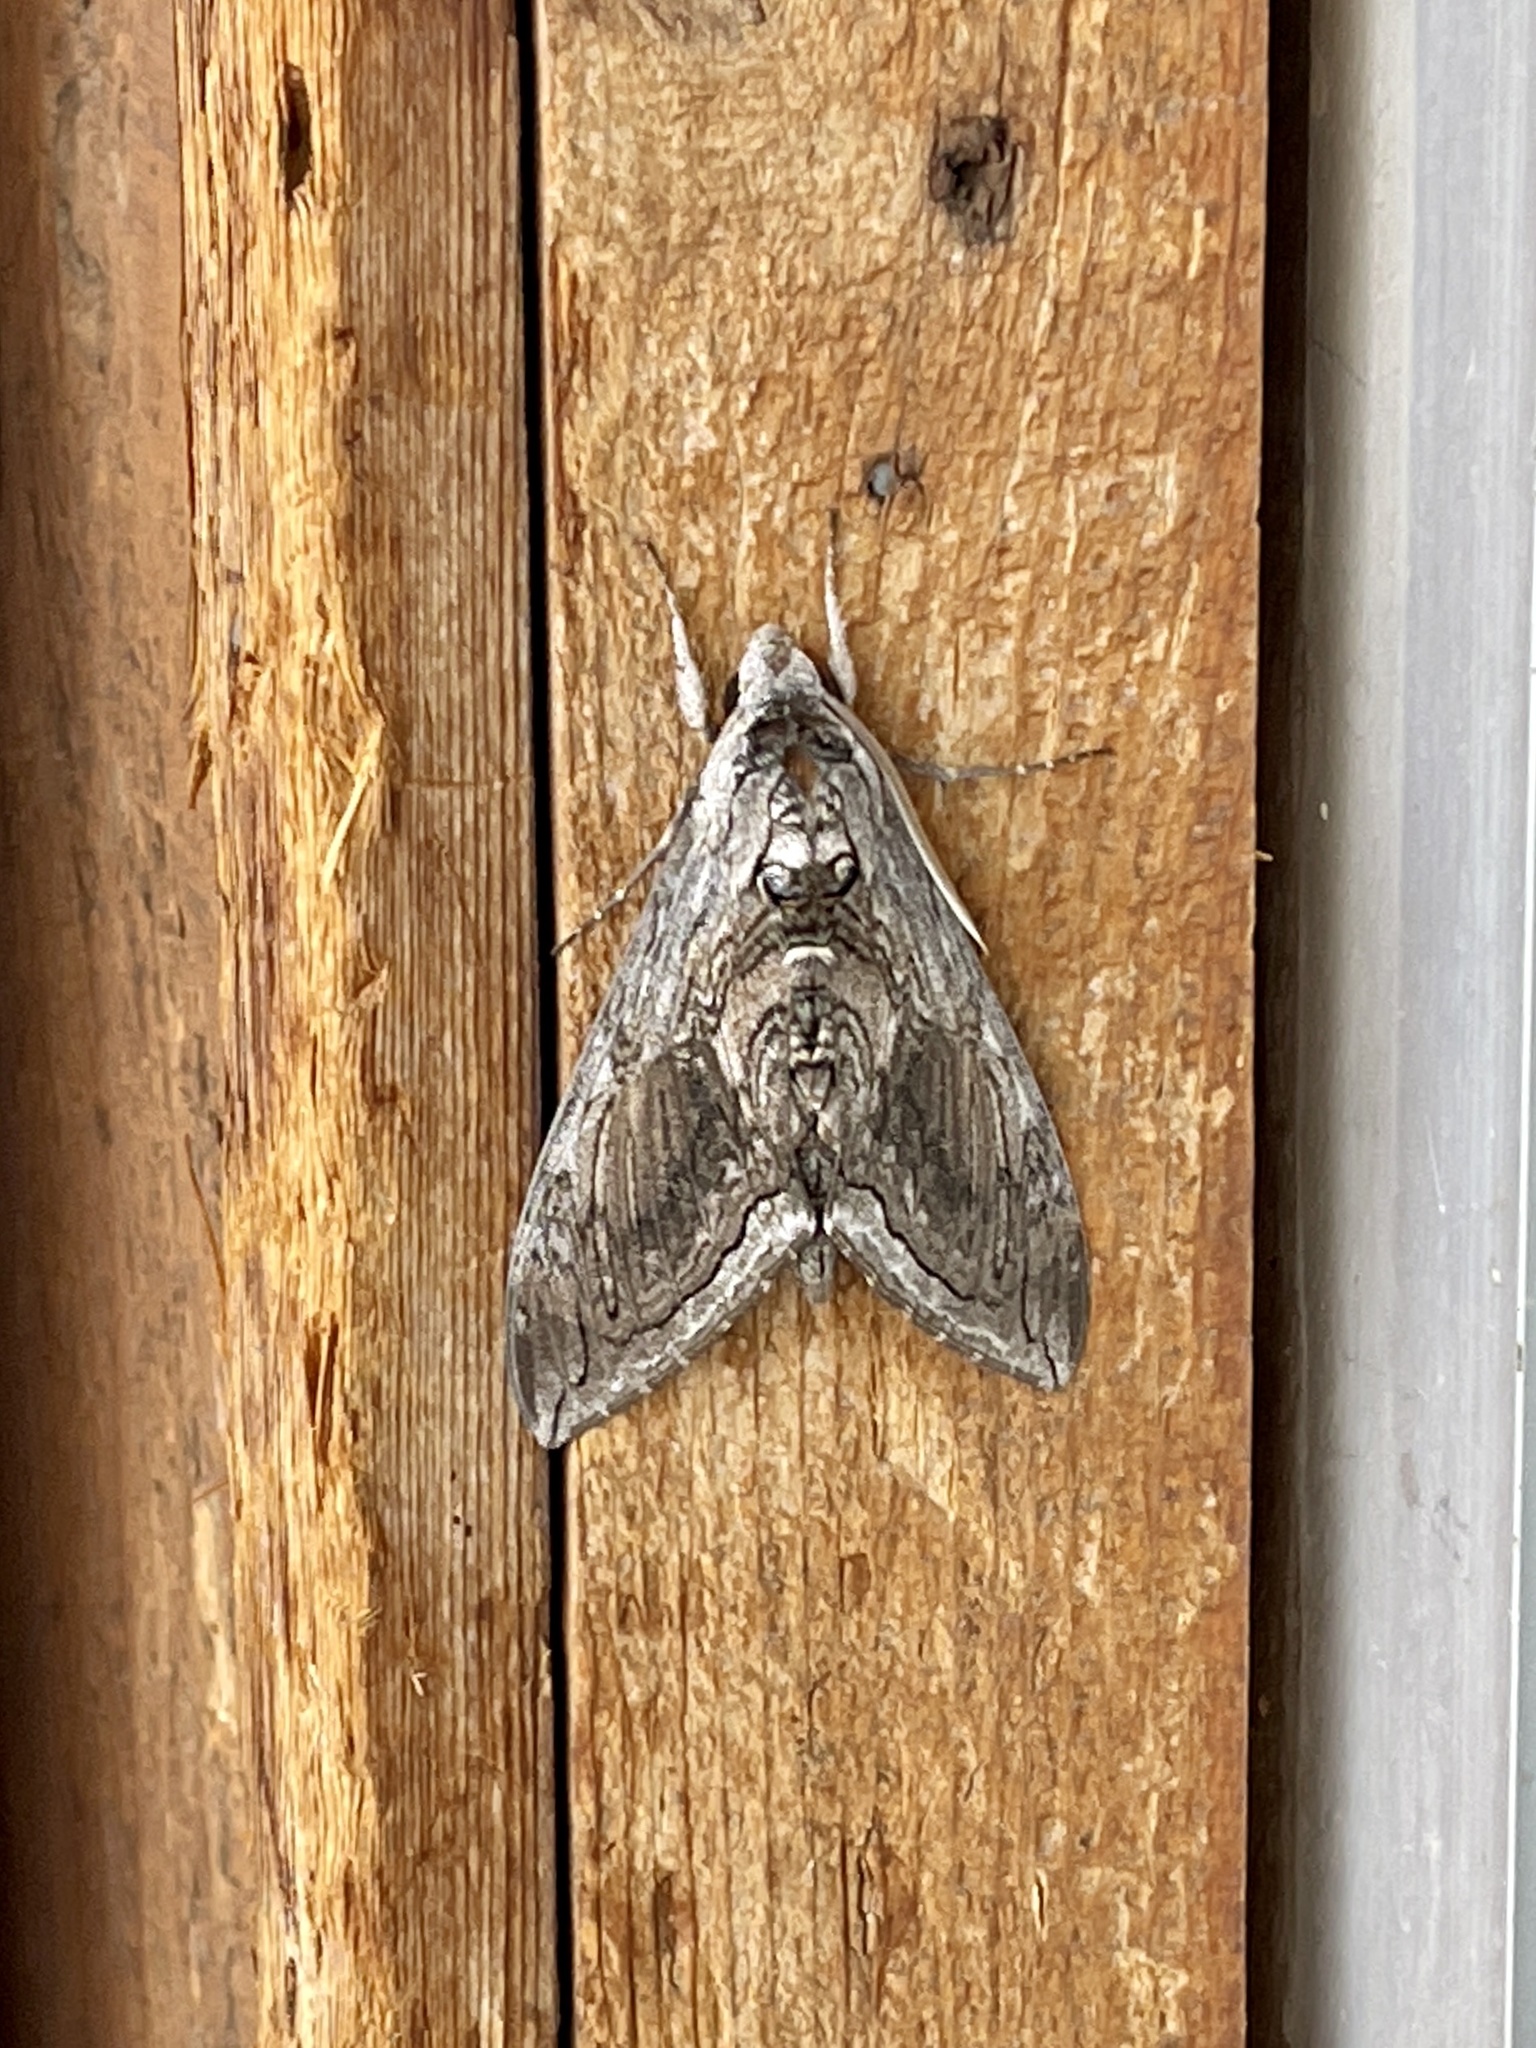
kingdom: Animalia
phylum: Arthropoda
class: Insecta
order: Lepidoptera
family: Sphingidae
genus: Manduca
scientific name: Manduca quinquemaculatus
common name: Five-spotted hawk-moth
